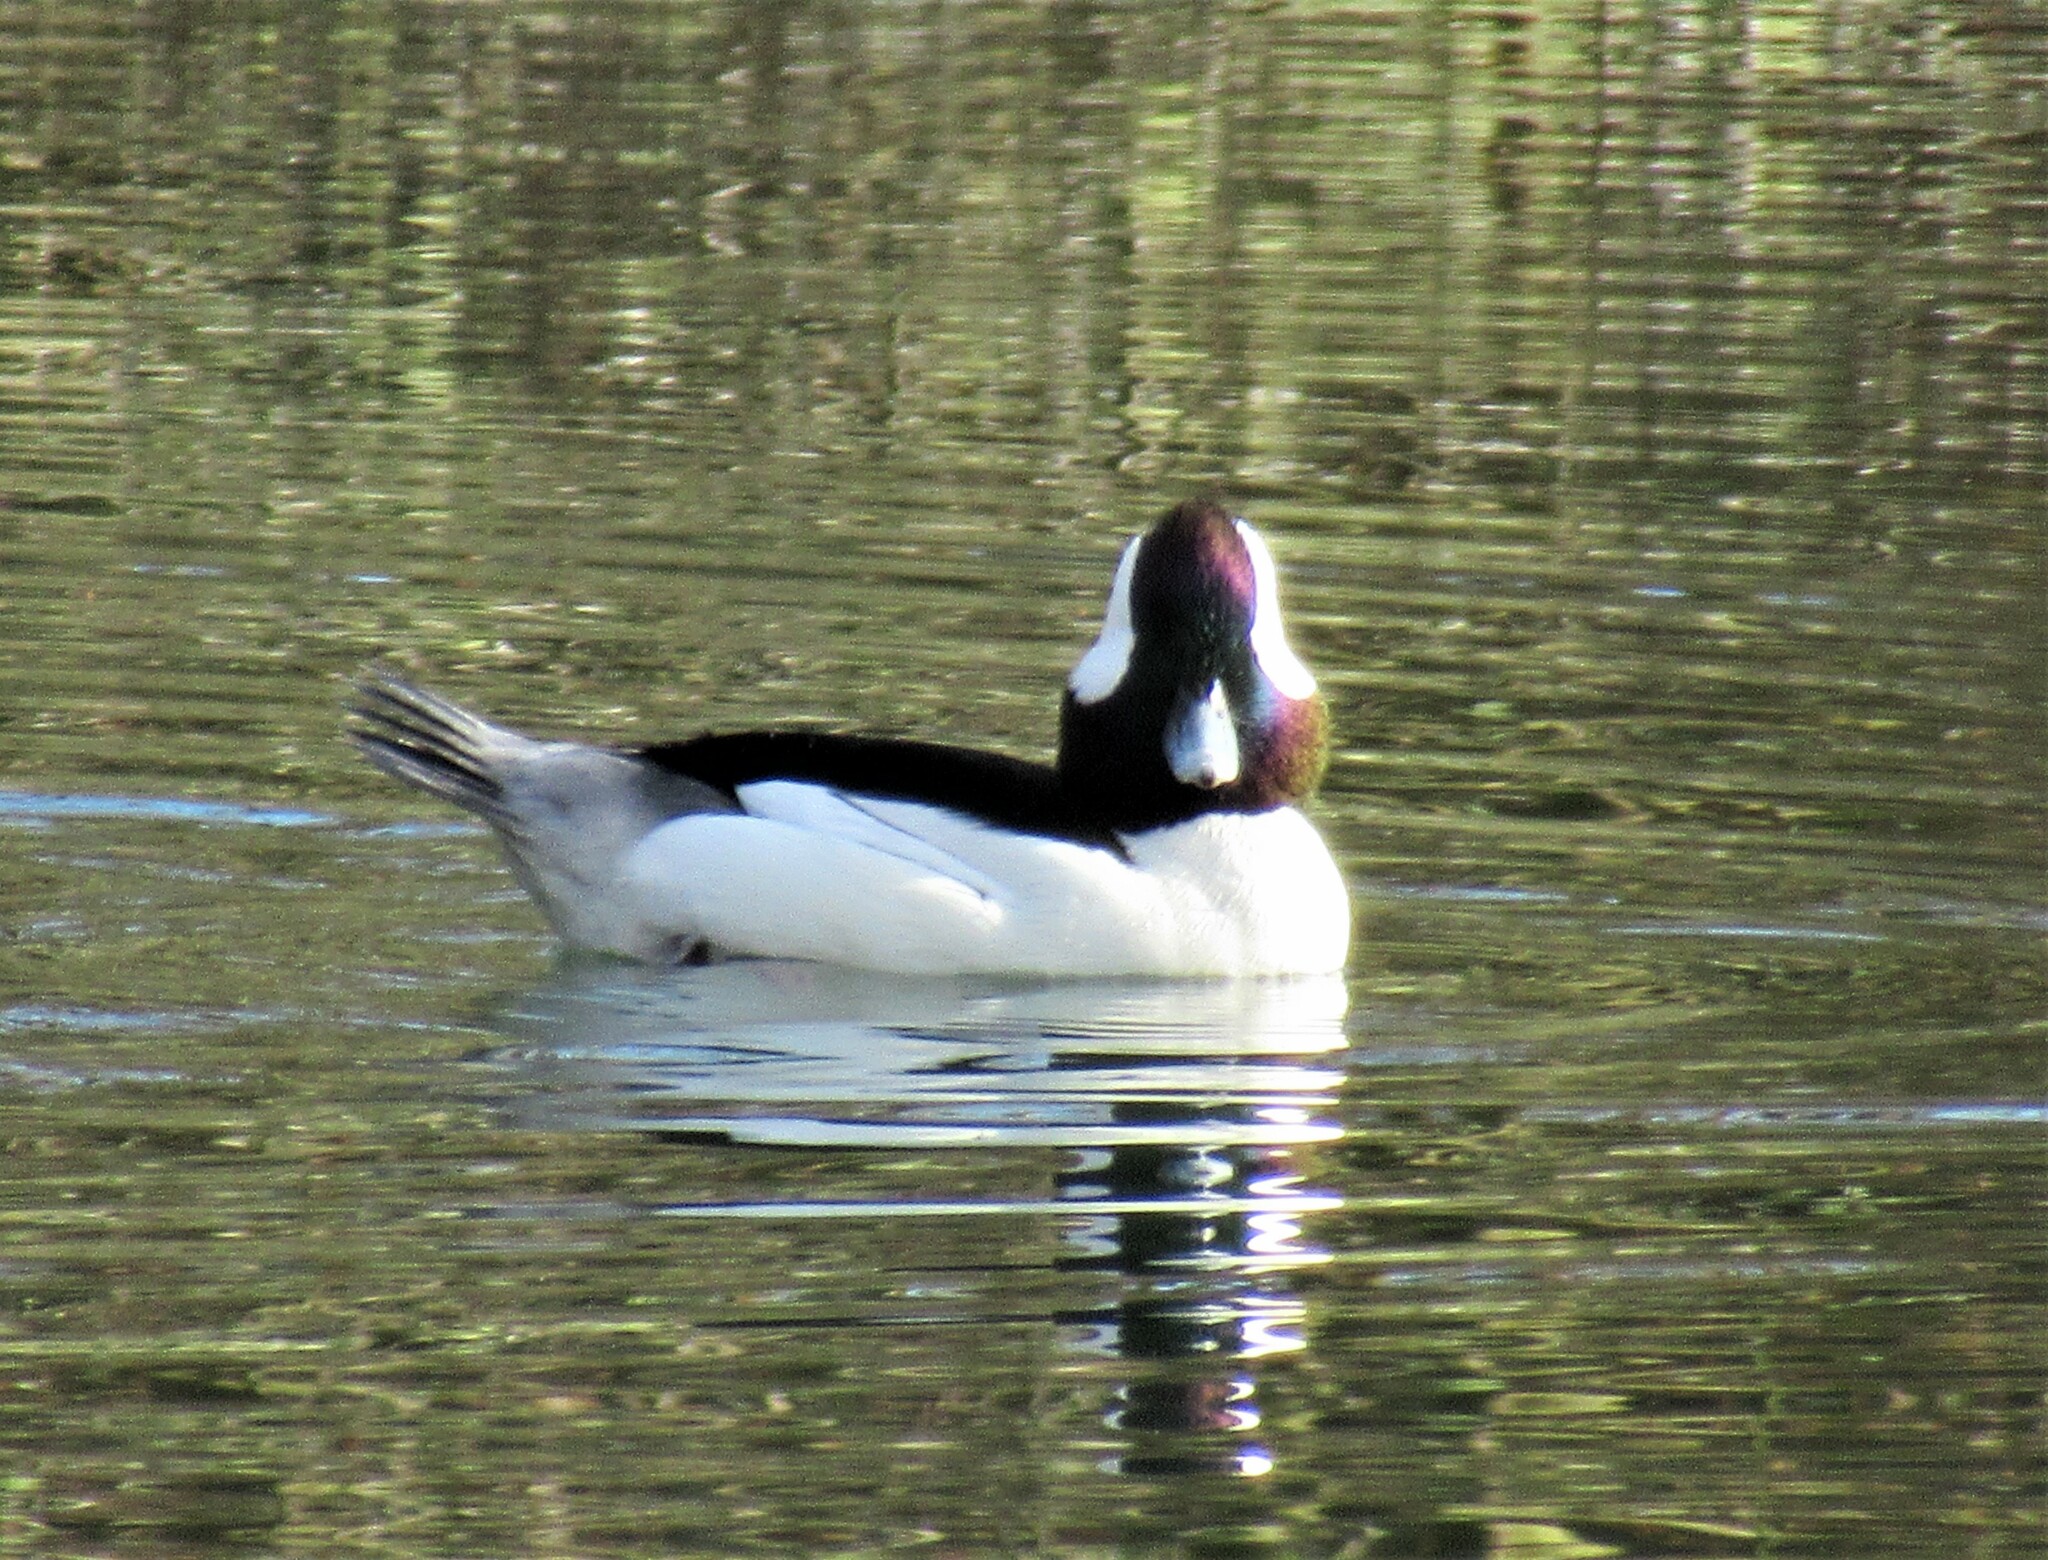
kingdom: Animalia
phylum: Chordata
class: Aves
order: Anseriformes
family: Anatidae
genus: Bucephala
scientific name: Bucephala albeola
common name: Bufflehead
